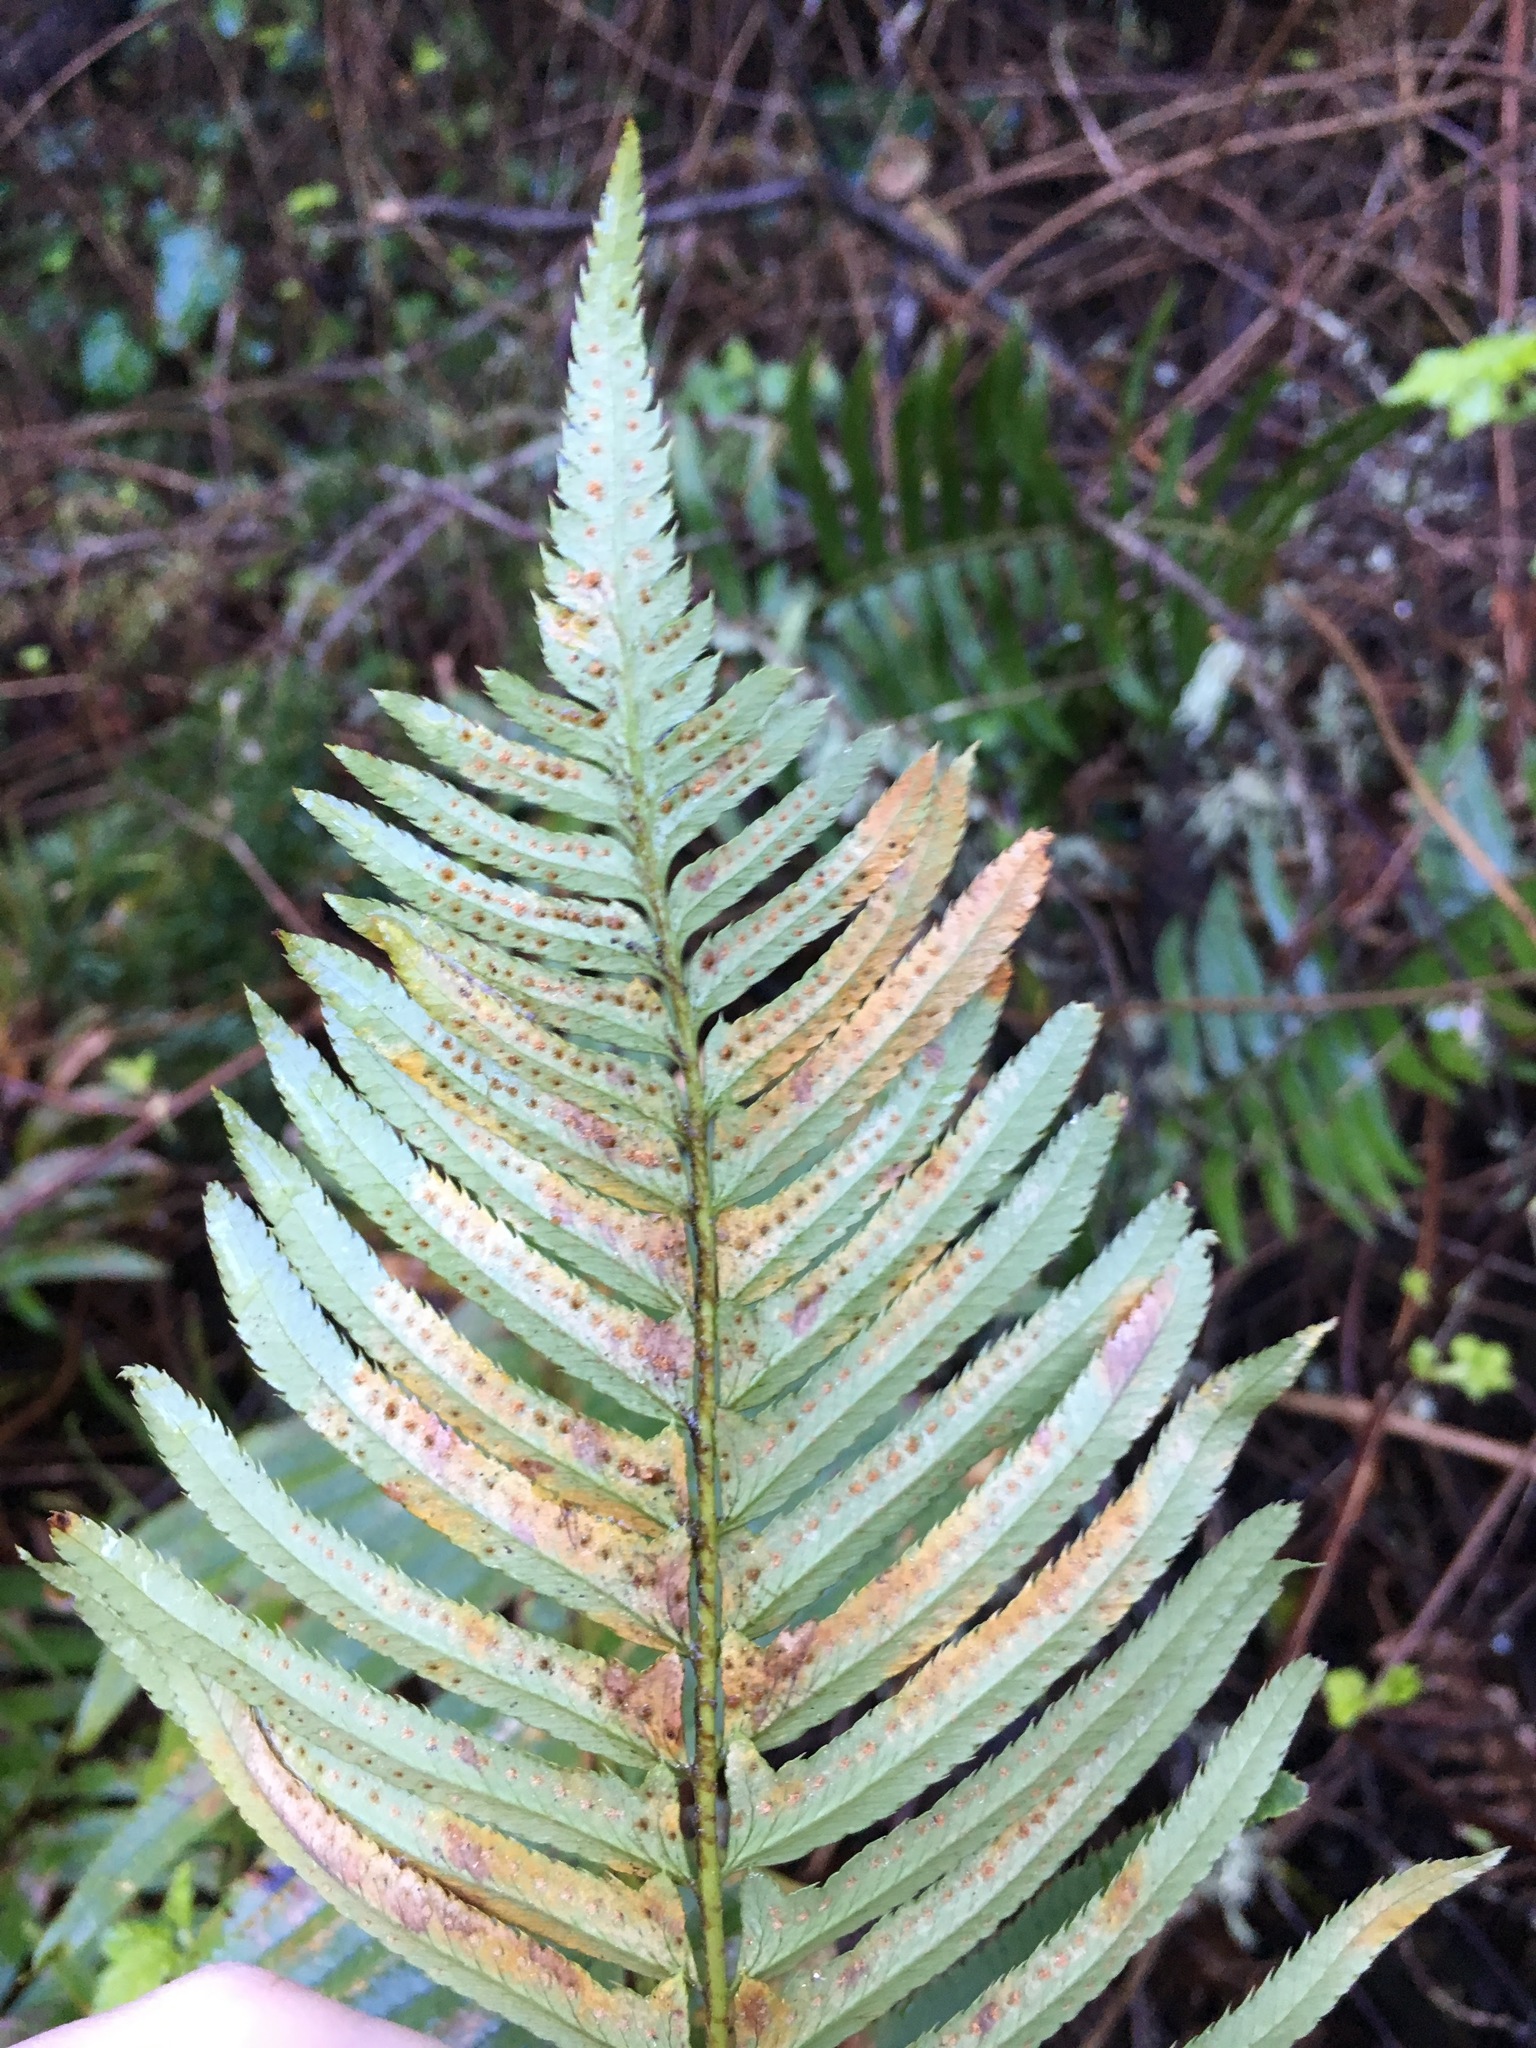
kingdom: Plantae
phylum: Tracheophyta
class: Polypodiopsida
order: Polypodiales
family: Dryopteridaceae
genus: Polystichum
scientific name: Polystichum munitum
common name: Western sword-fern
